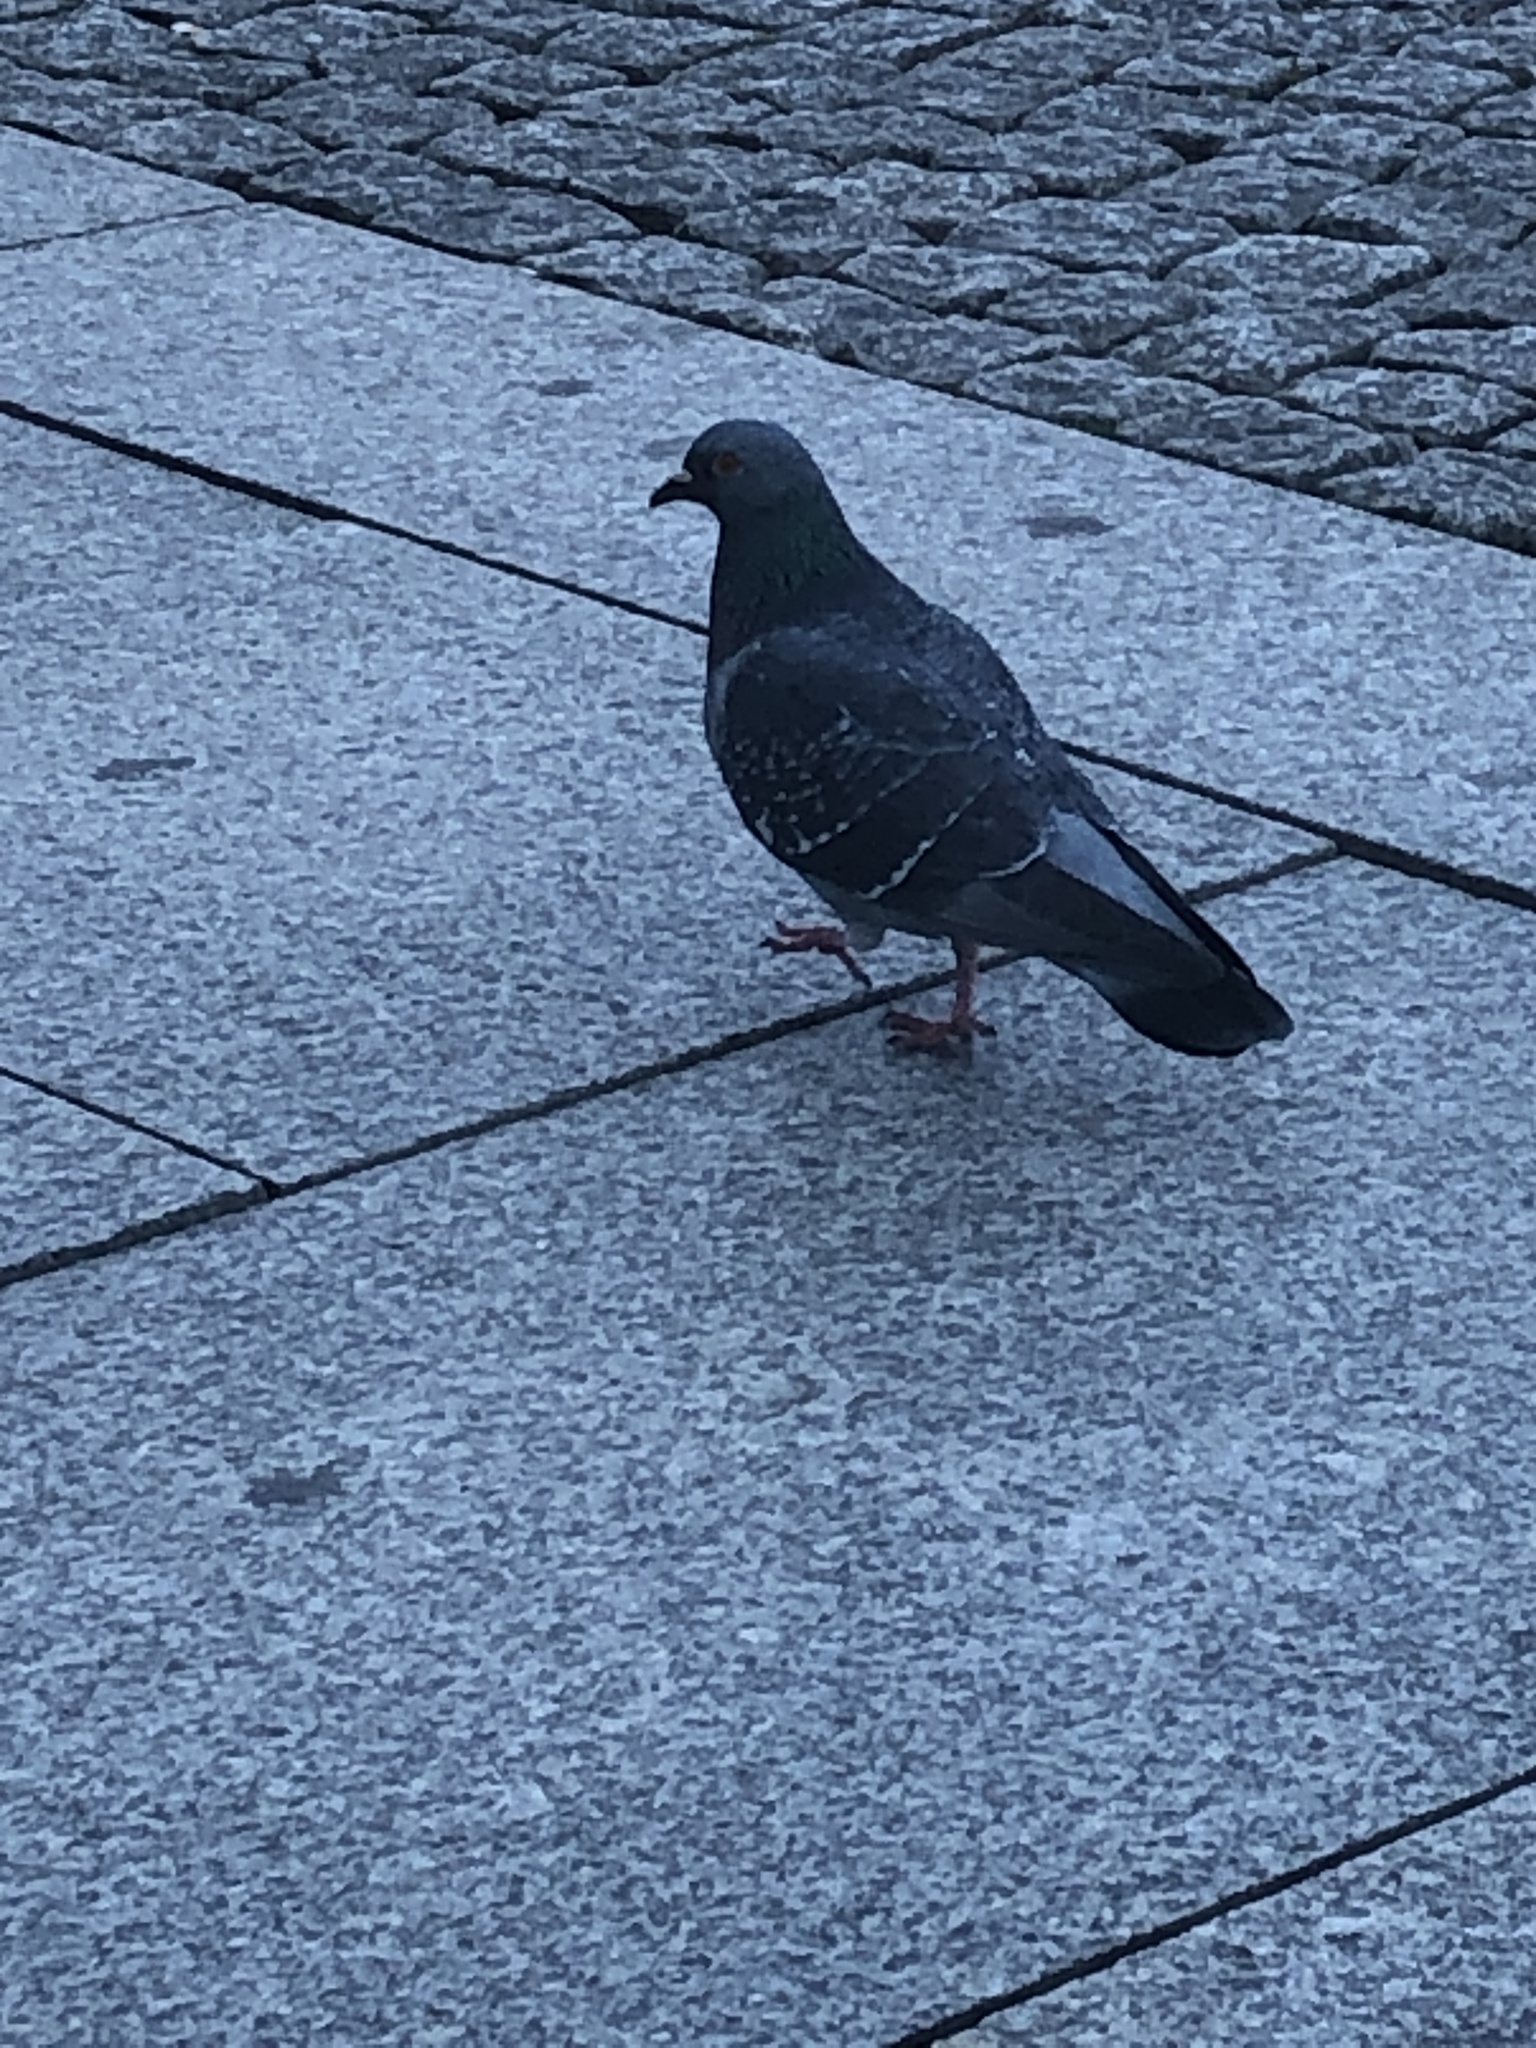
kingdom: Animalia
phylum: Chordata
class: Aves
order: Columbiformes
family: Columbidae
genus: Columba
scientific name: Columba livia
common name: Rock pigeon
